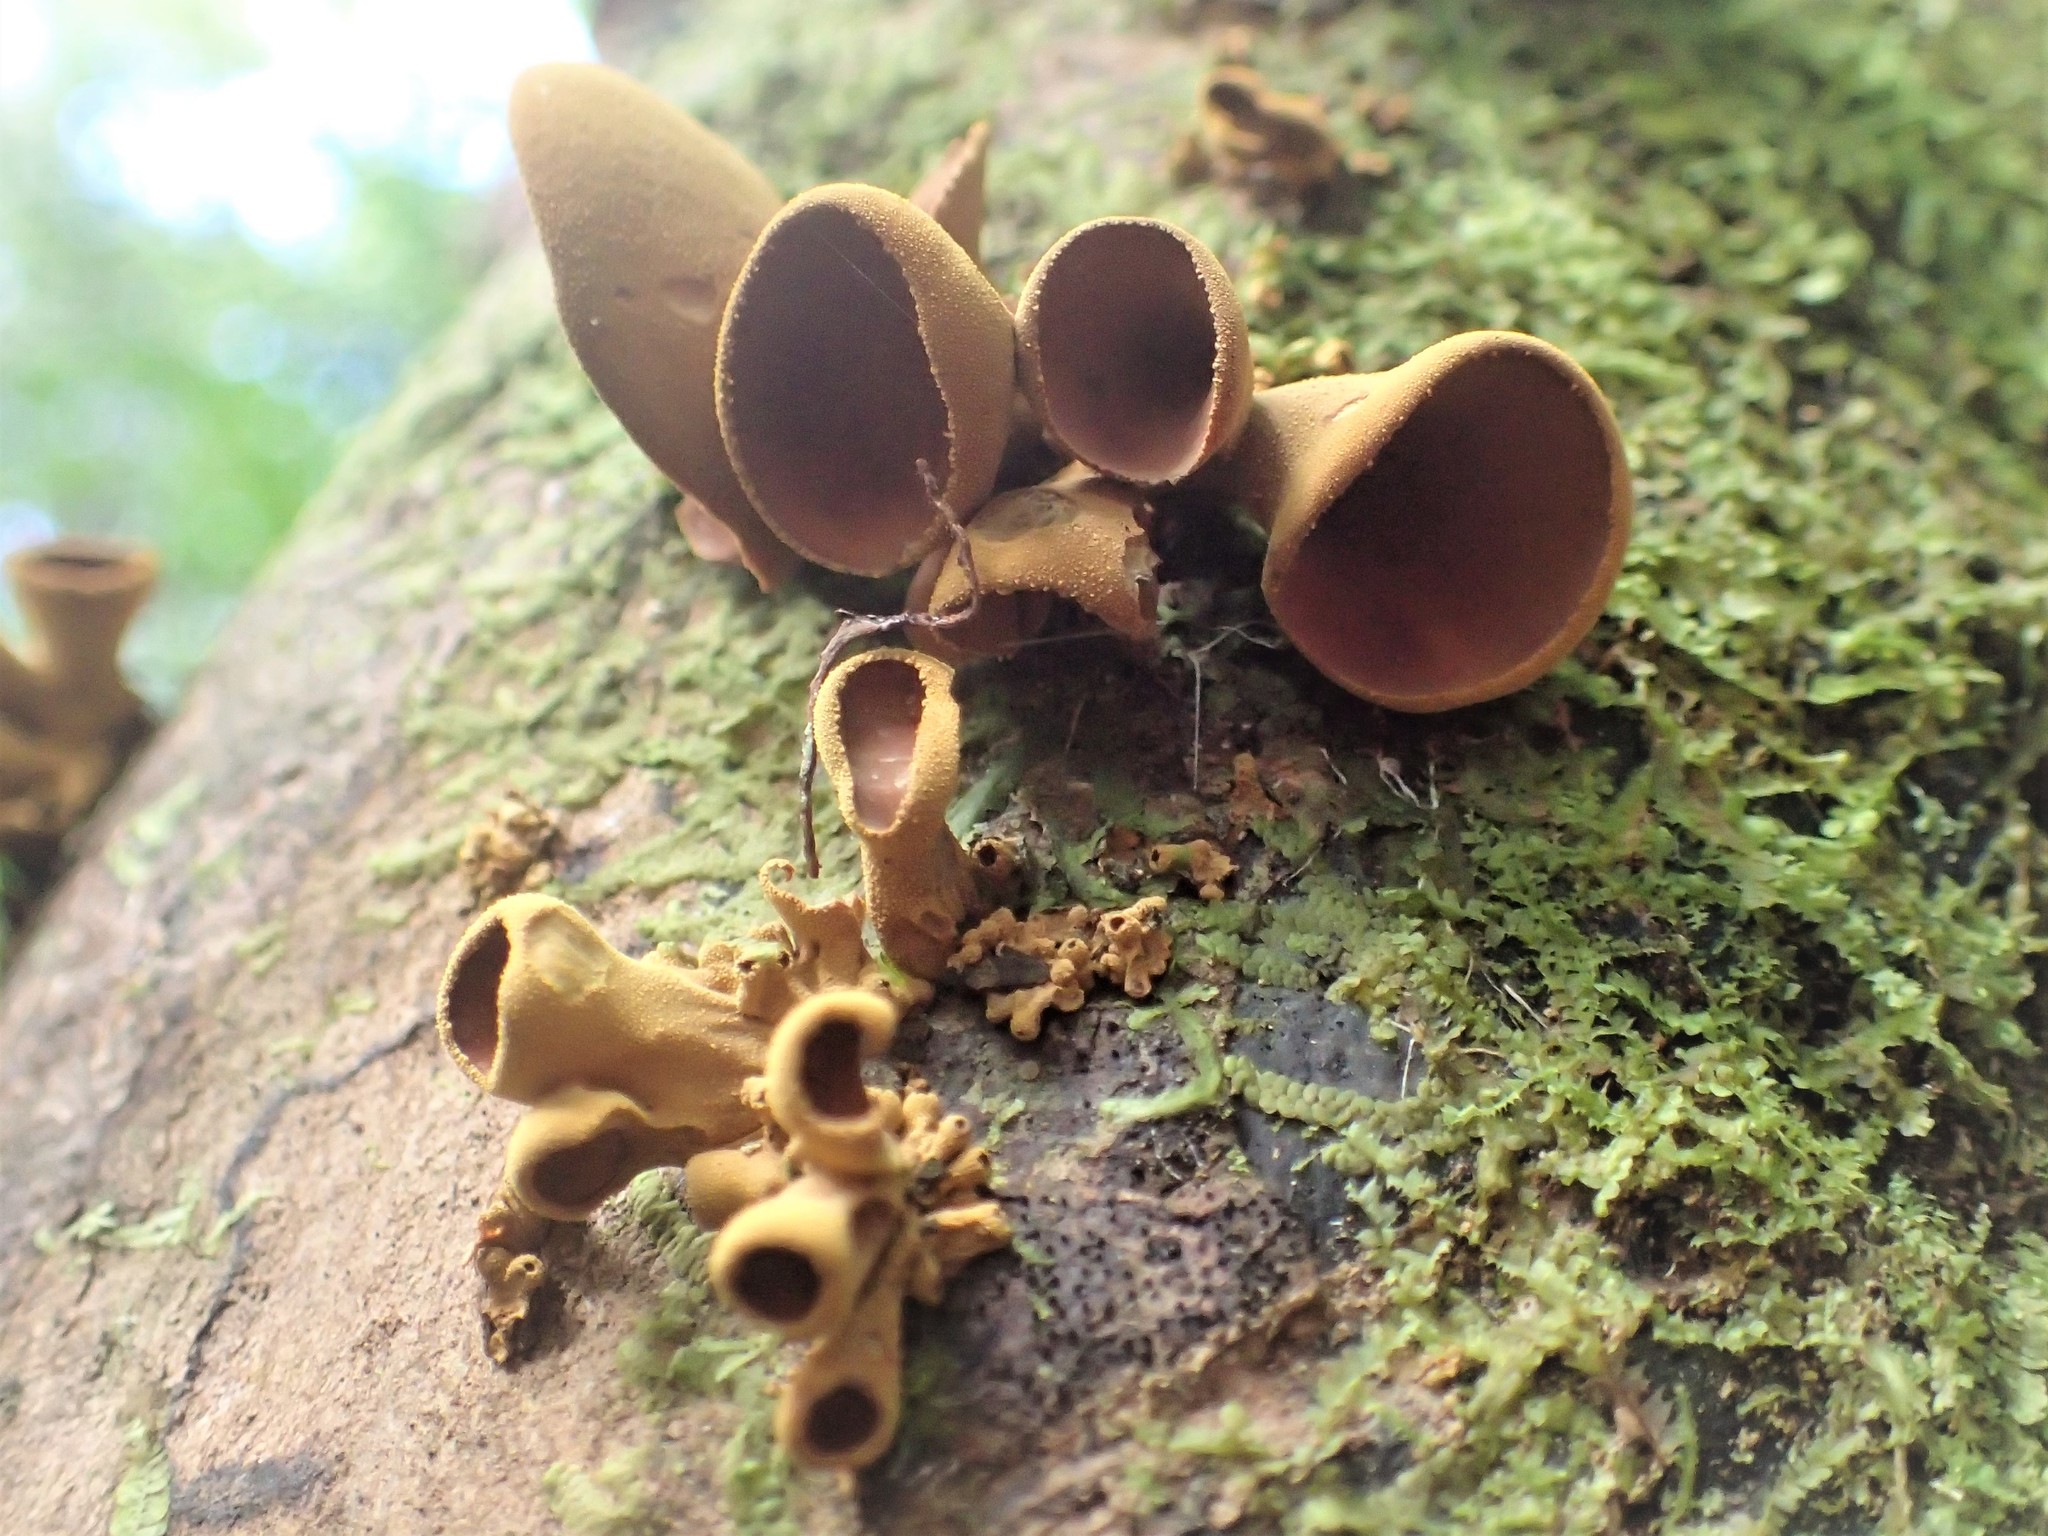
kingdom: Fungi
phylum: Ascomycota
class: Leotiomycetes
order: Helotiales
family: Cenangiaceae
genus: Encoelia
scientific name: Encoelia heteromera
